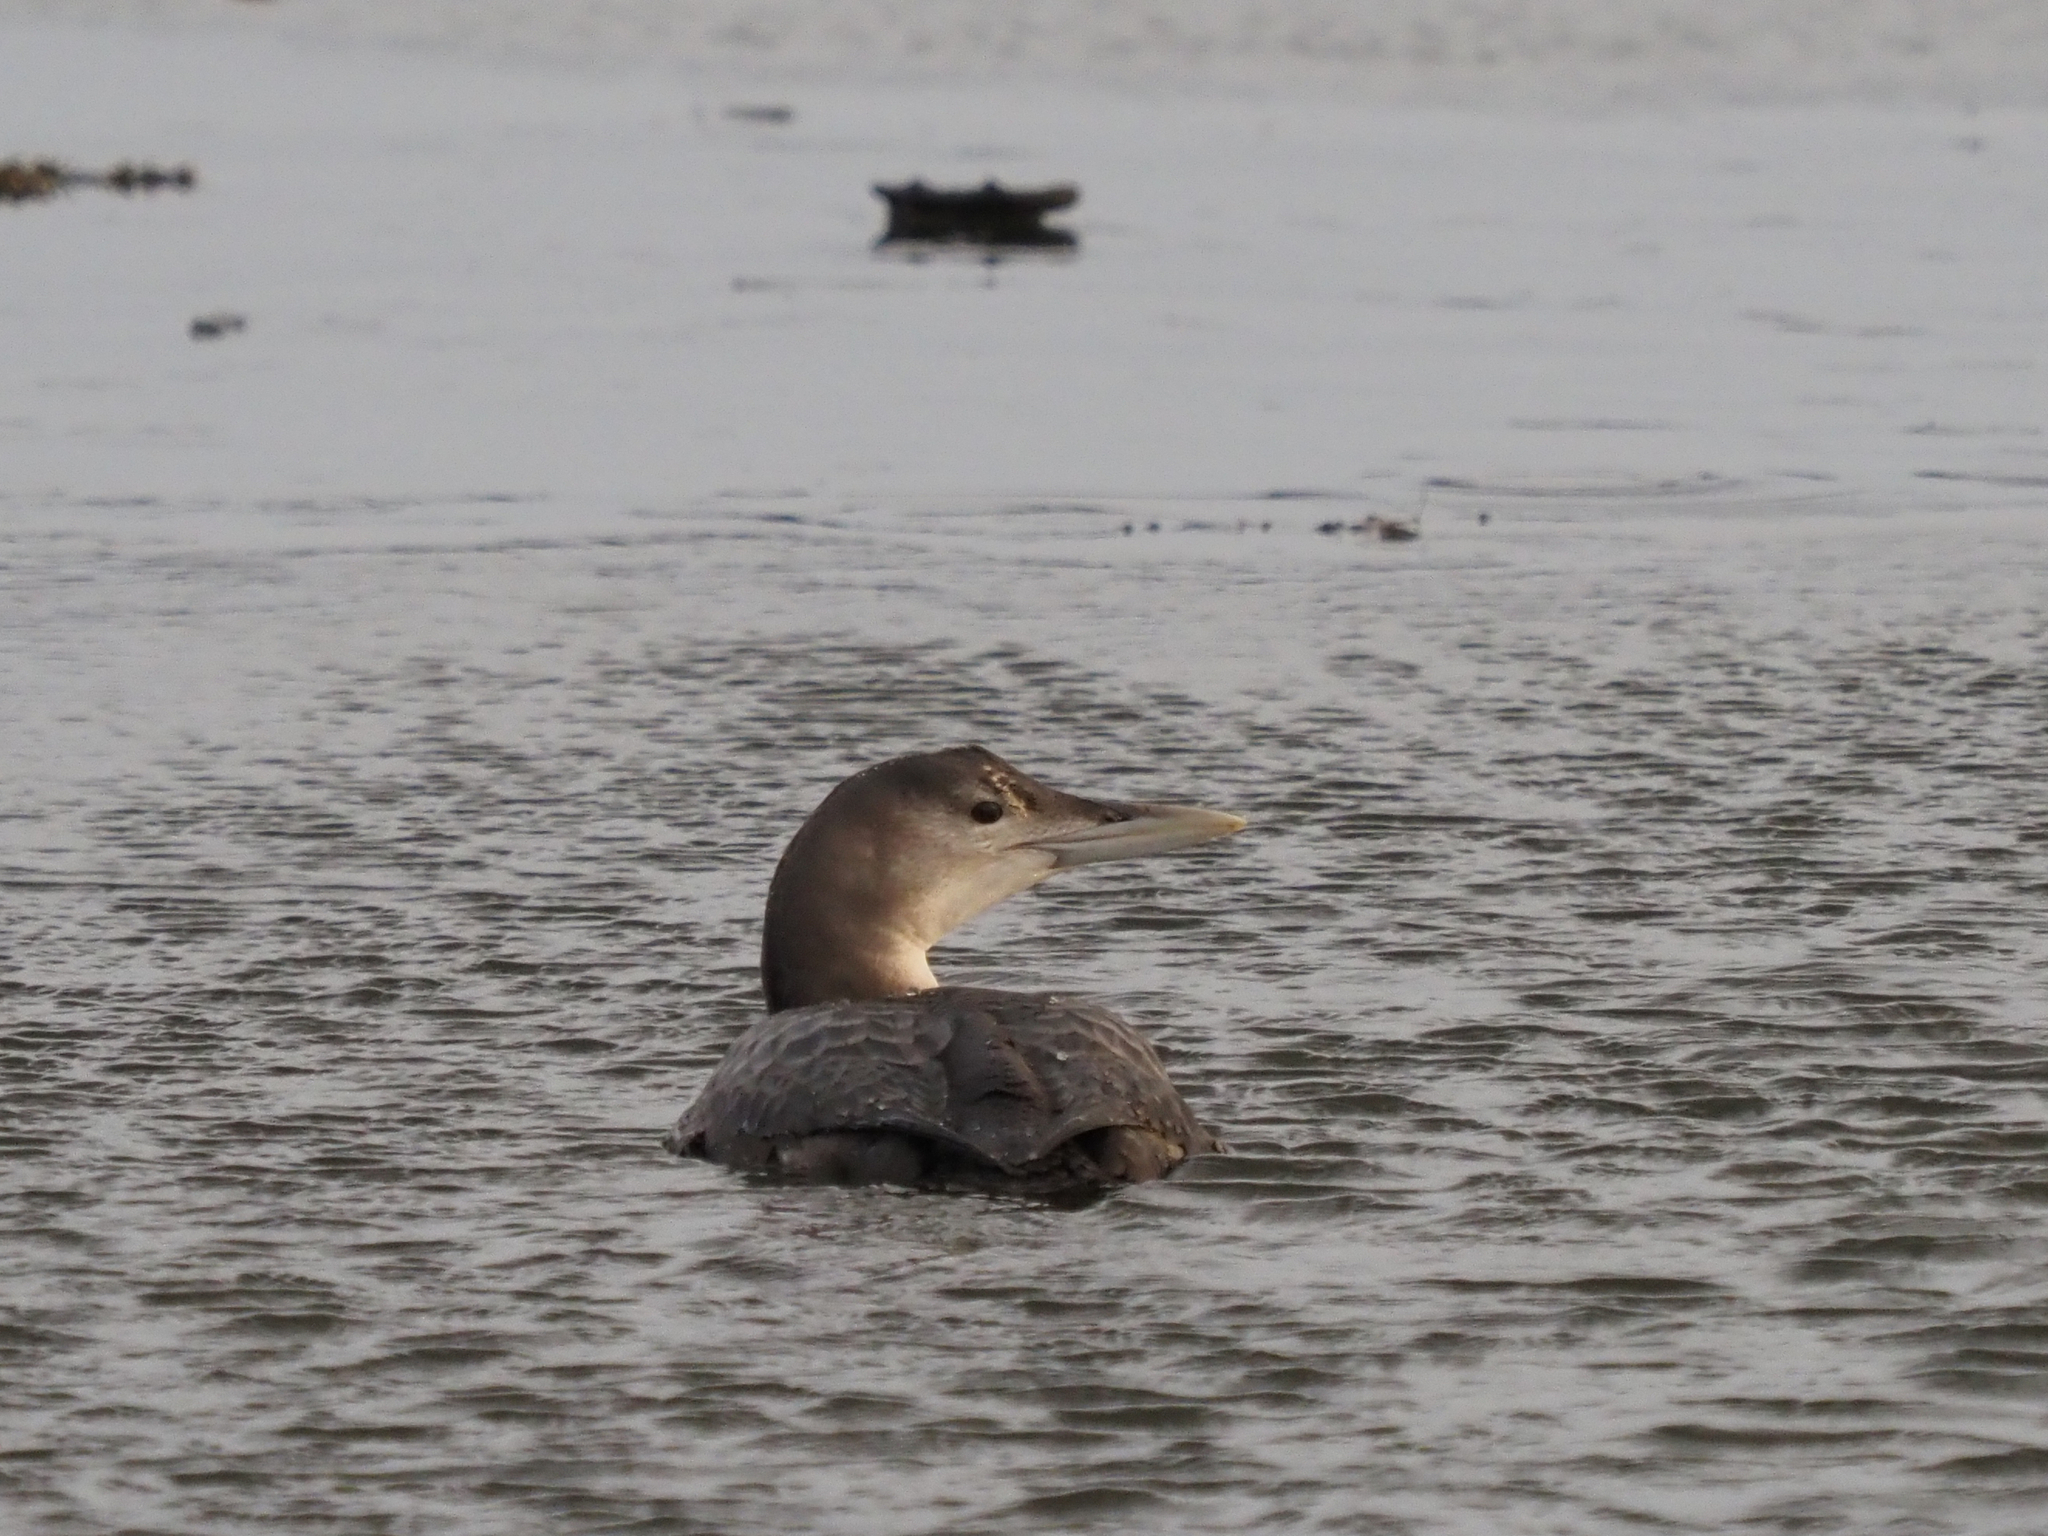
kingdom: Animalia
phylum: Chordata
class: Aves
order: Gaviiformes
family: Gaviidae
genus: Gavia
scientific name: Gavia adamsii
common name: Yellow-billed loon
